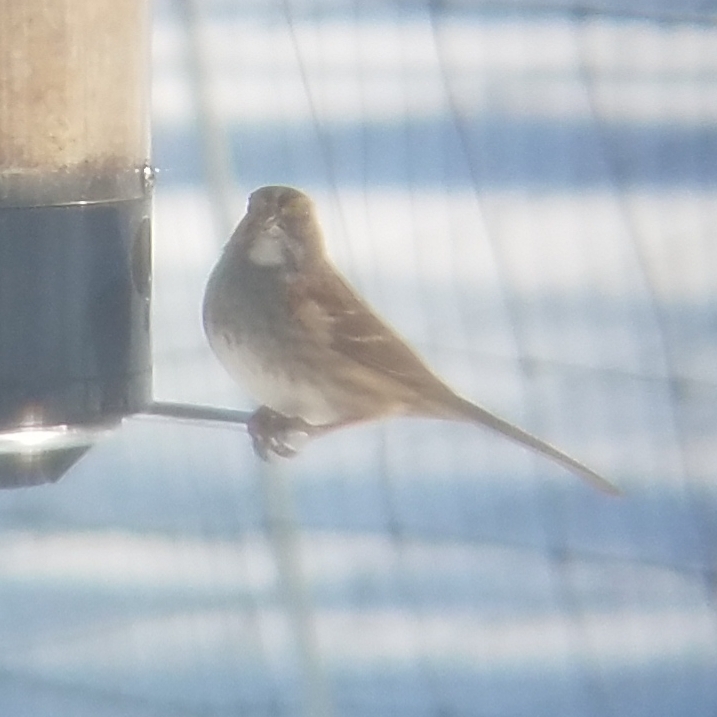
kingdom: Animalia
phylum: Chordata
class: Aves
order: Passeriformes
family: Passerellidae
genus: Zonotrichia
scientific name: Zonotrichia albicollis
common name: White-throated sparrow
